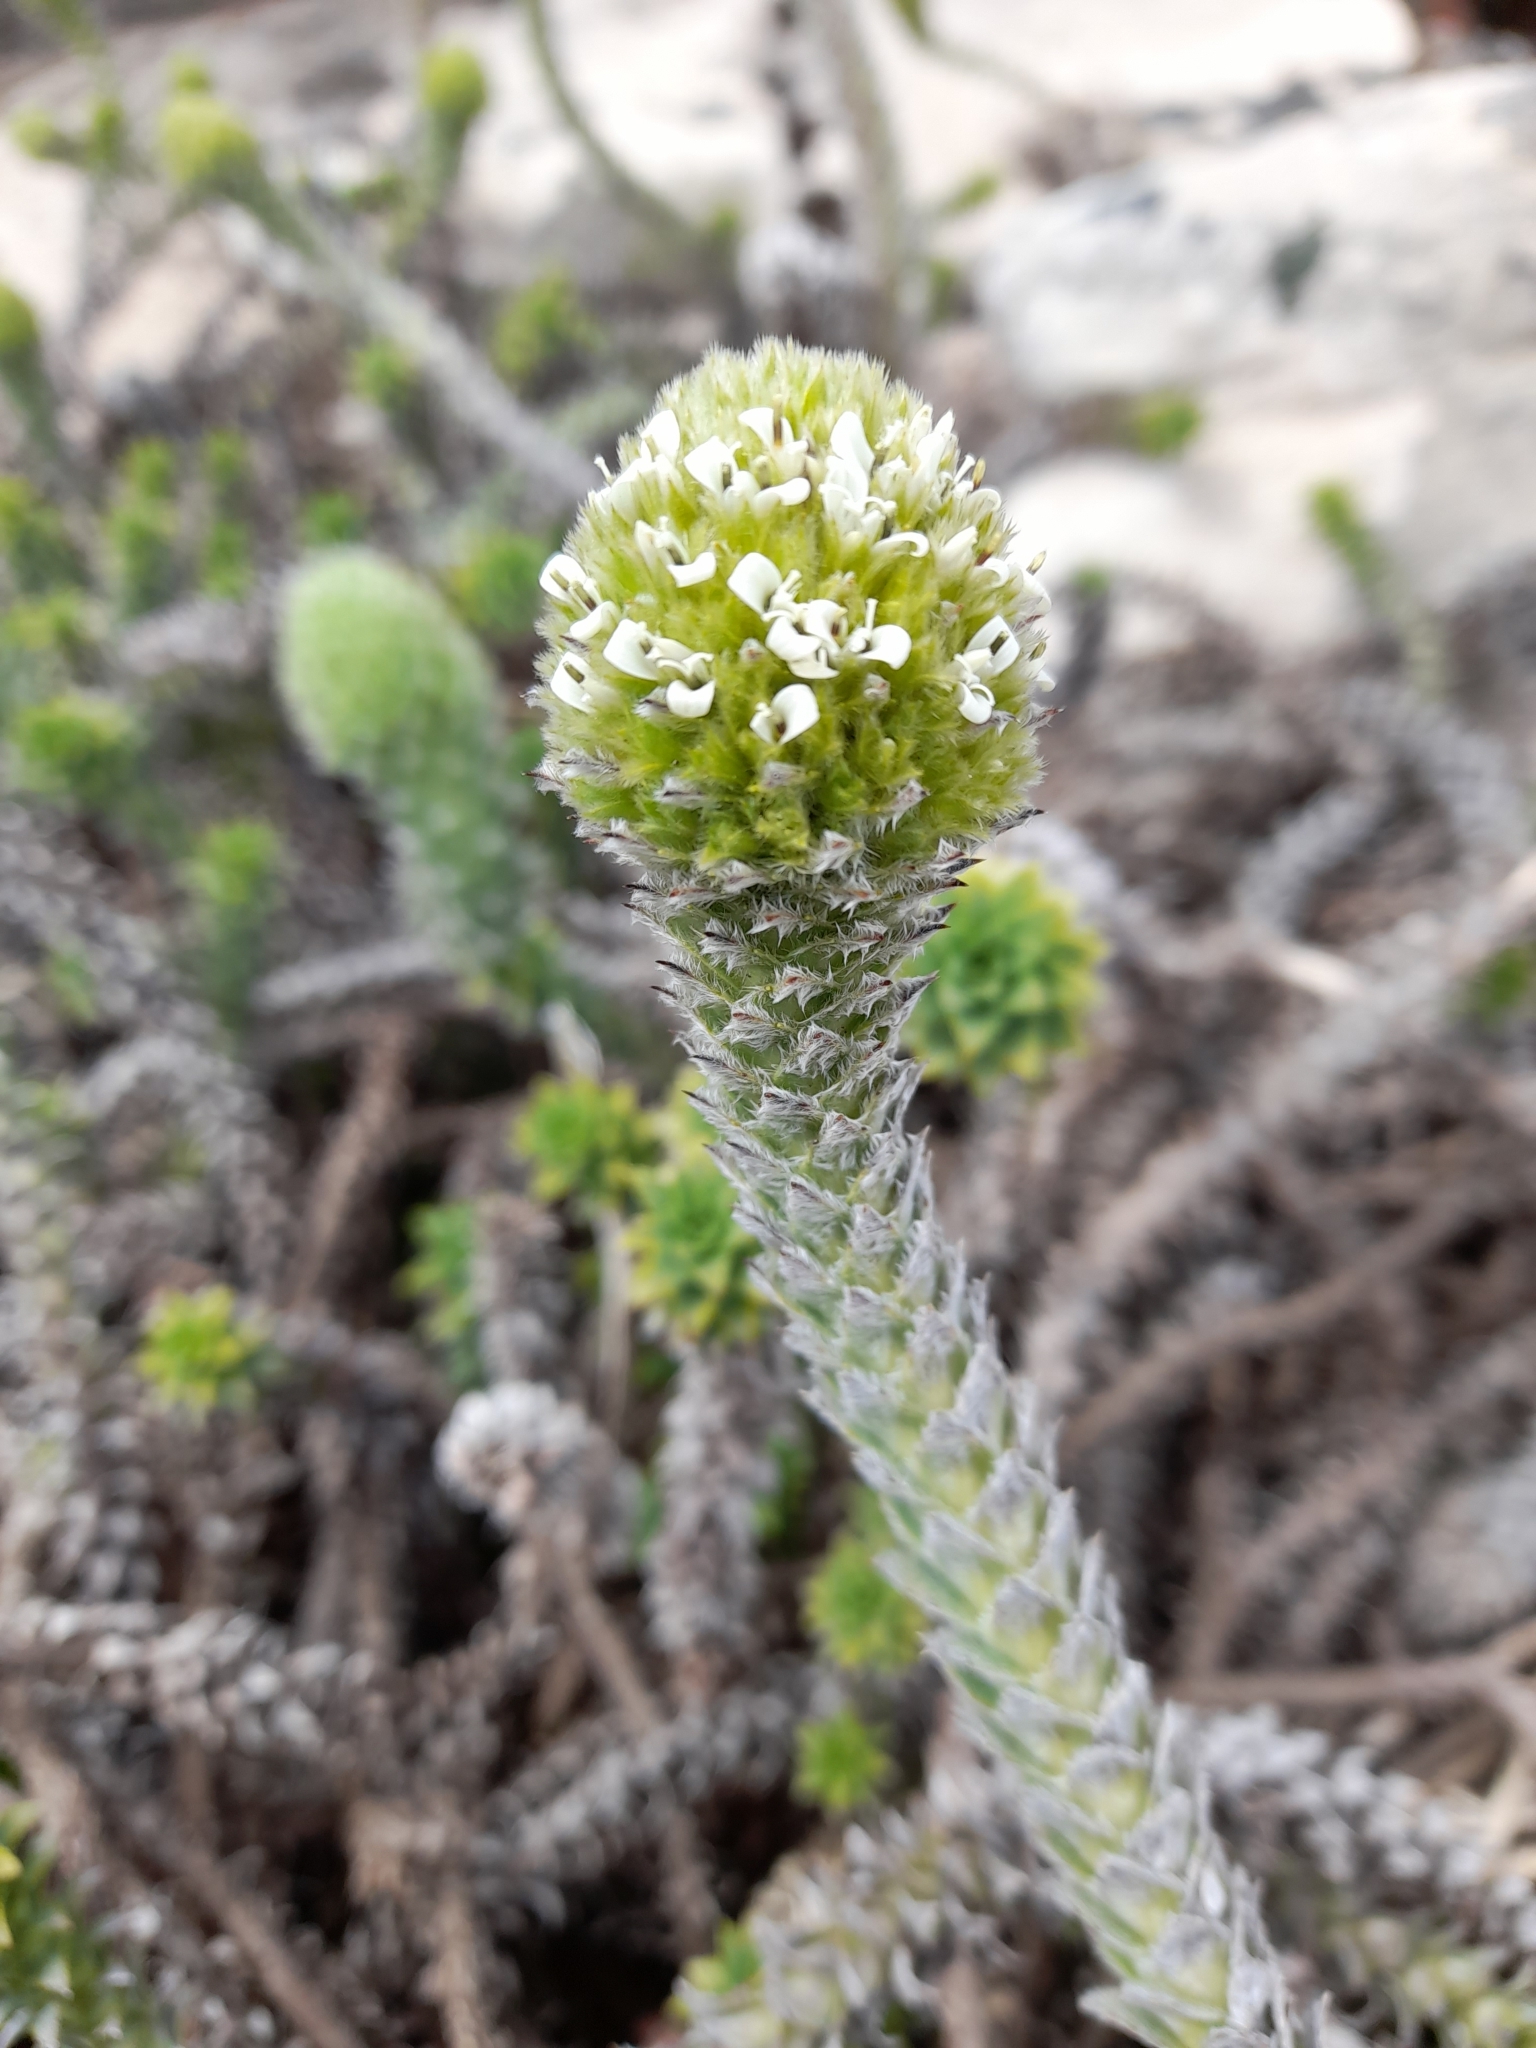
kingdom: Plantae
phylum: Tracheophyta
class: Magnoliopsida
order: Asterales
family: Asteraceae
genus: Nassauvia
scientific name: Nassauvia serpens
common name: Snakeplant
